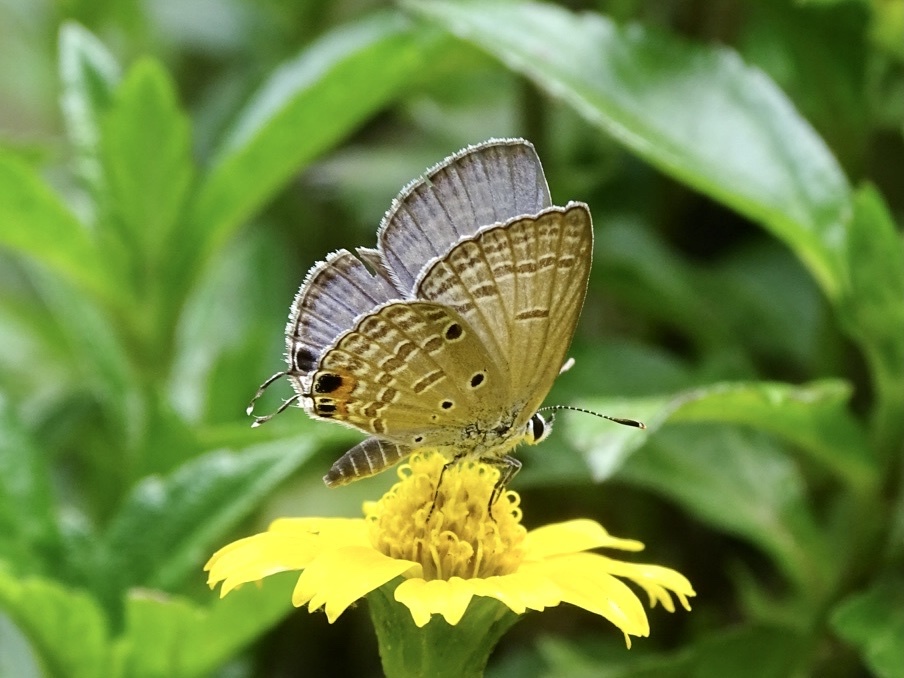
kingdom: Animalia
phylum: Arthropoda
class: Insecta
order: Lepidoptera
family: Lycaenidae
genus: Luthrodes
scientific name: Luthrodes pandava
